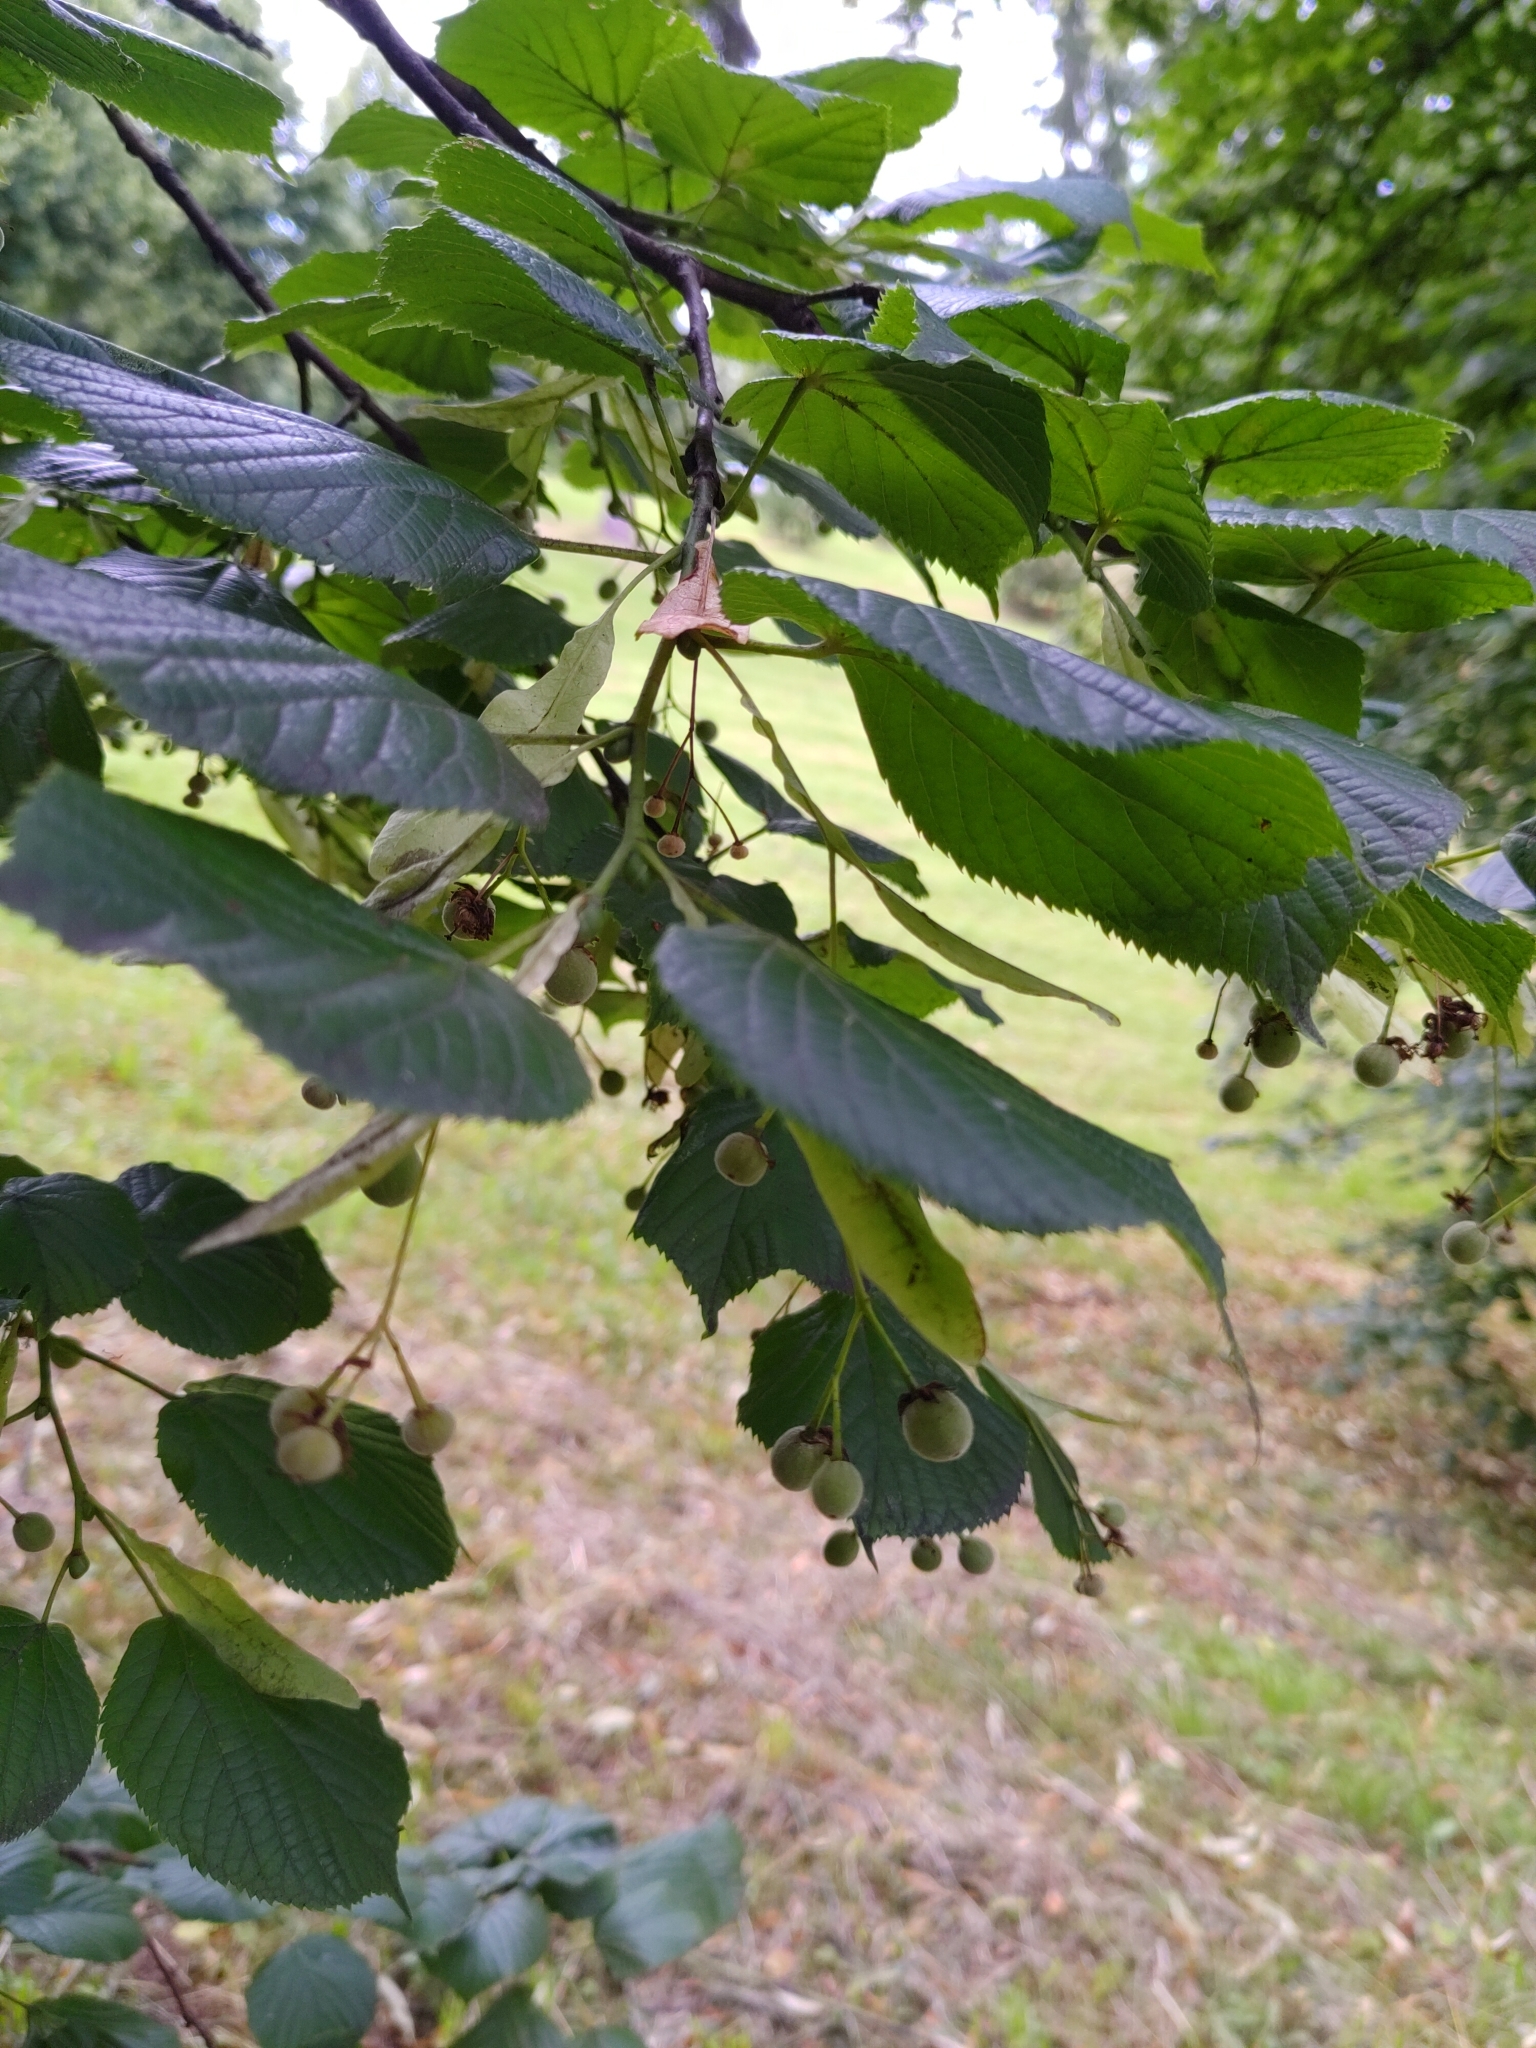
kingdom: Plantae
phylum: Tracheophyta
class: Magnoliopsida
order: Malvales
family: Malvaceae
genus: Tilia
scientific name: Tilia cordata
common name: Small-leaved lime
